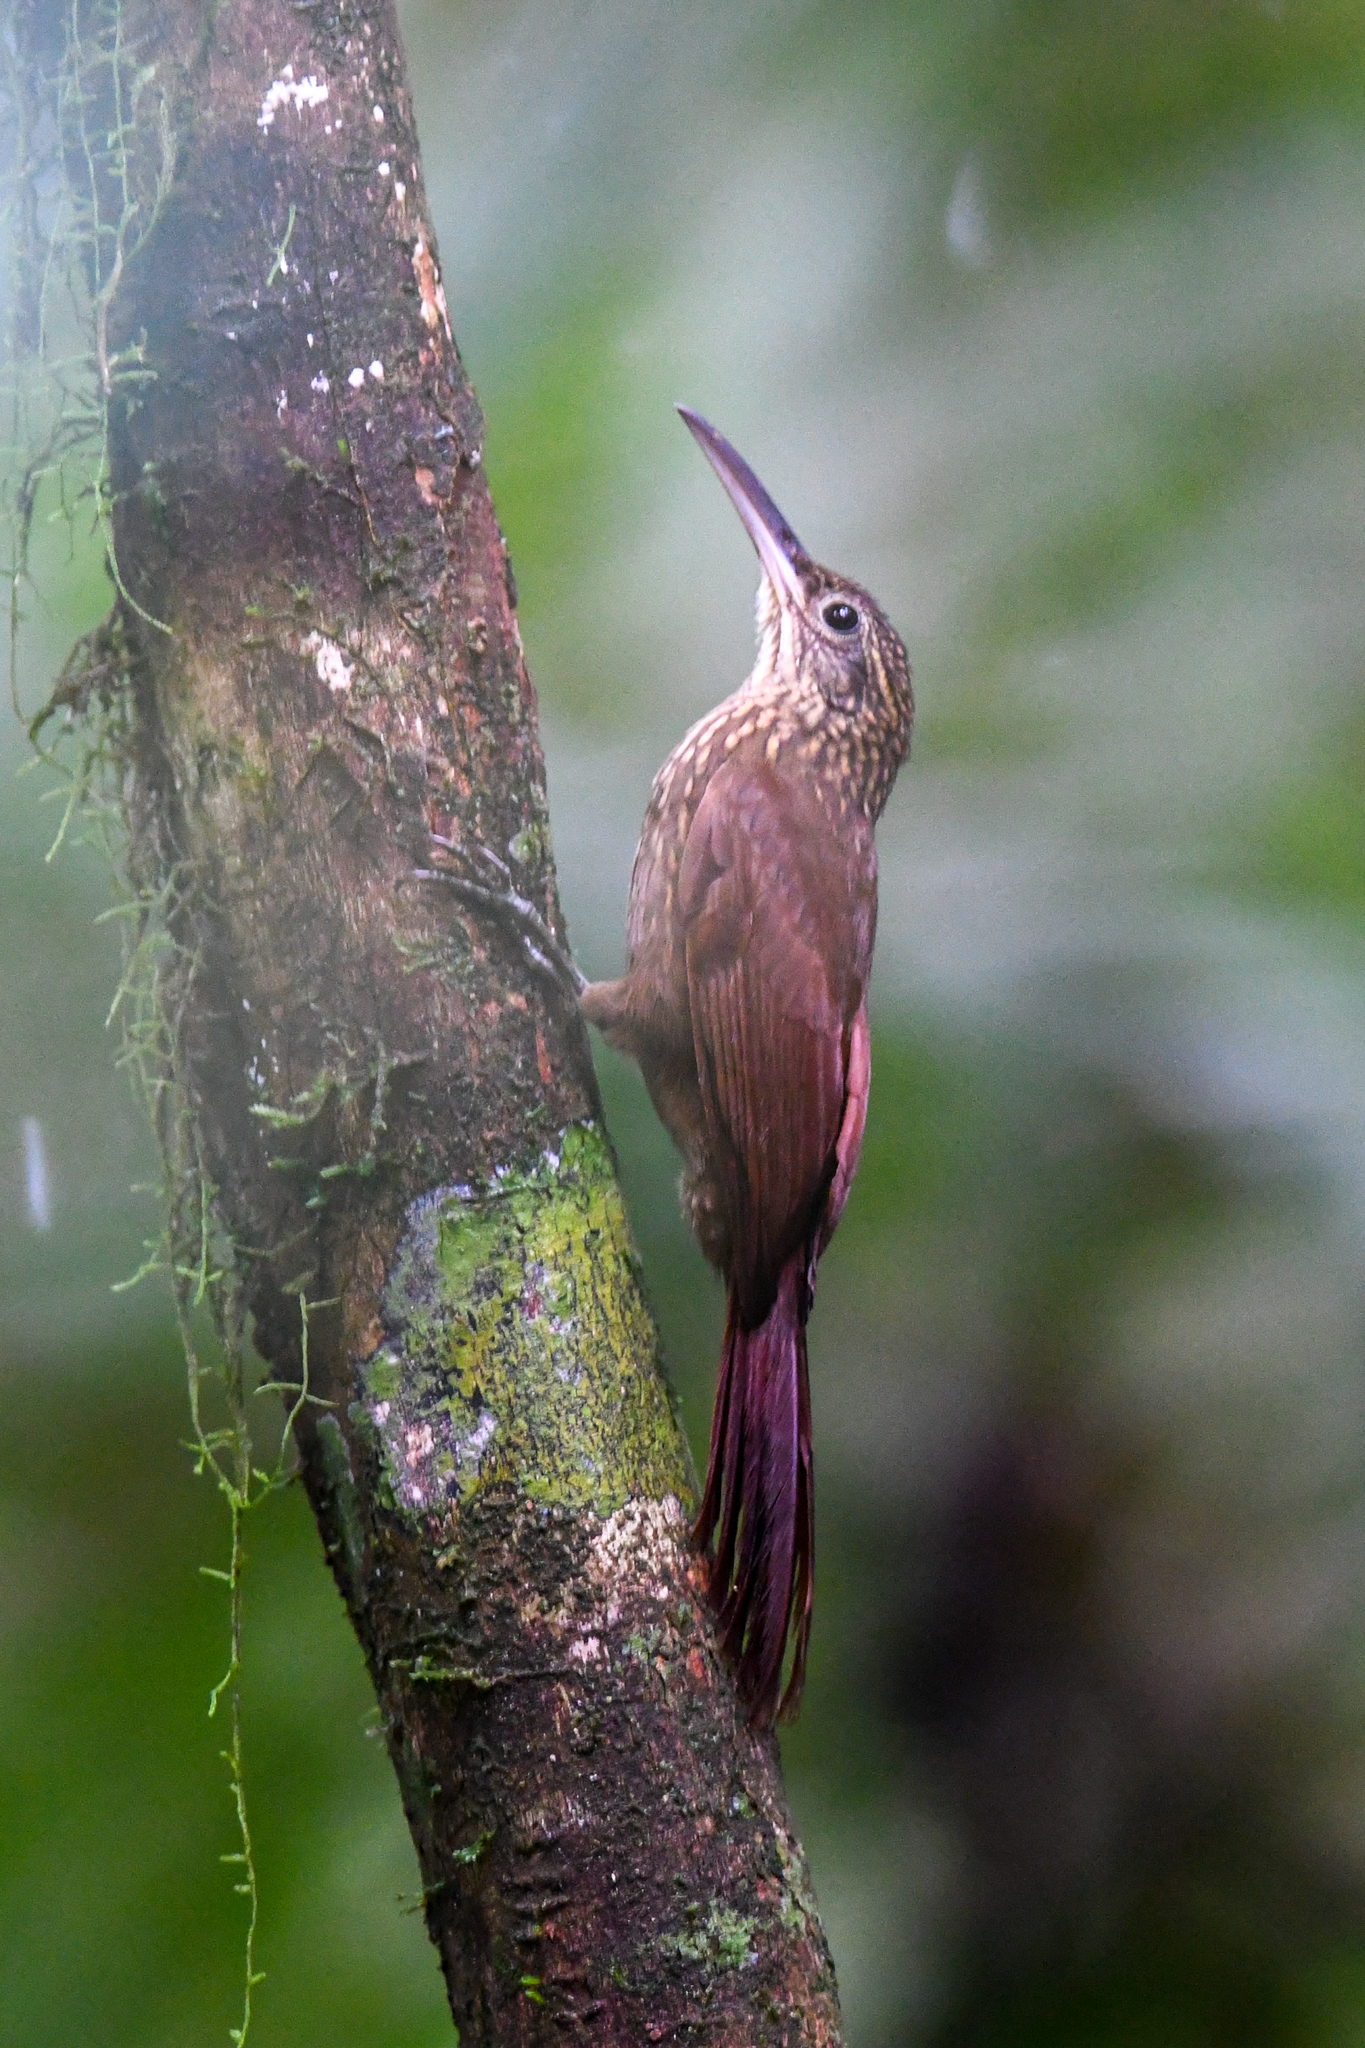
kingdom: Animalia
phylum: Chordata
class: Aves
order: Passeriformes
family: Furnariidae
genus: Xiphorhynchus
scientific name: Xiphorhynchus susurrans
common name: Cocoa woodcreeper
